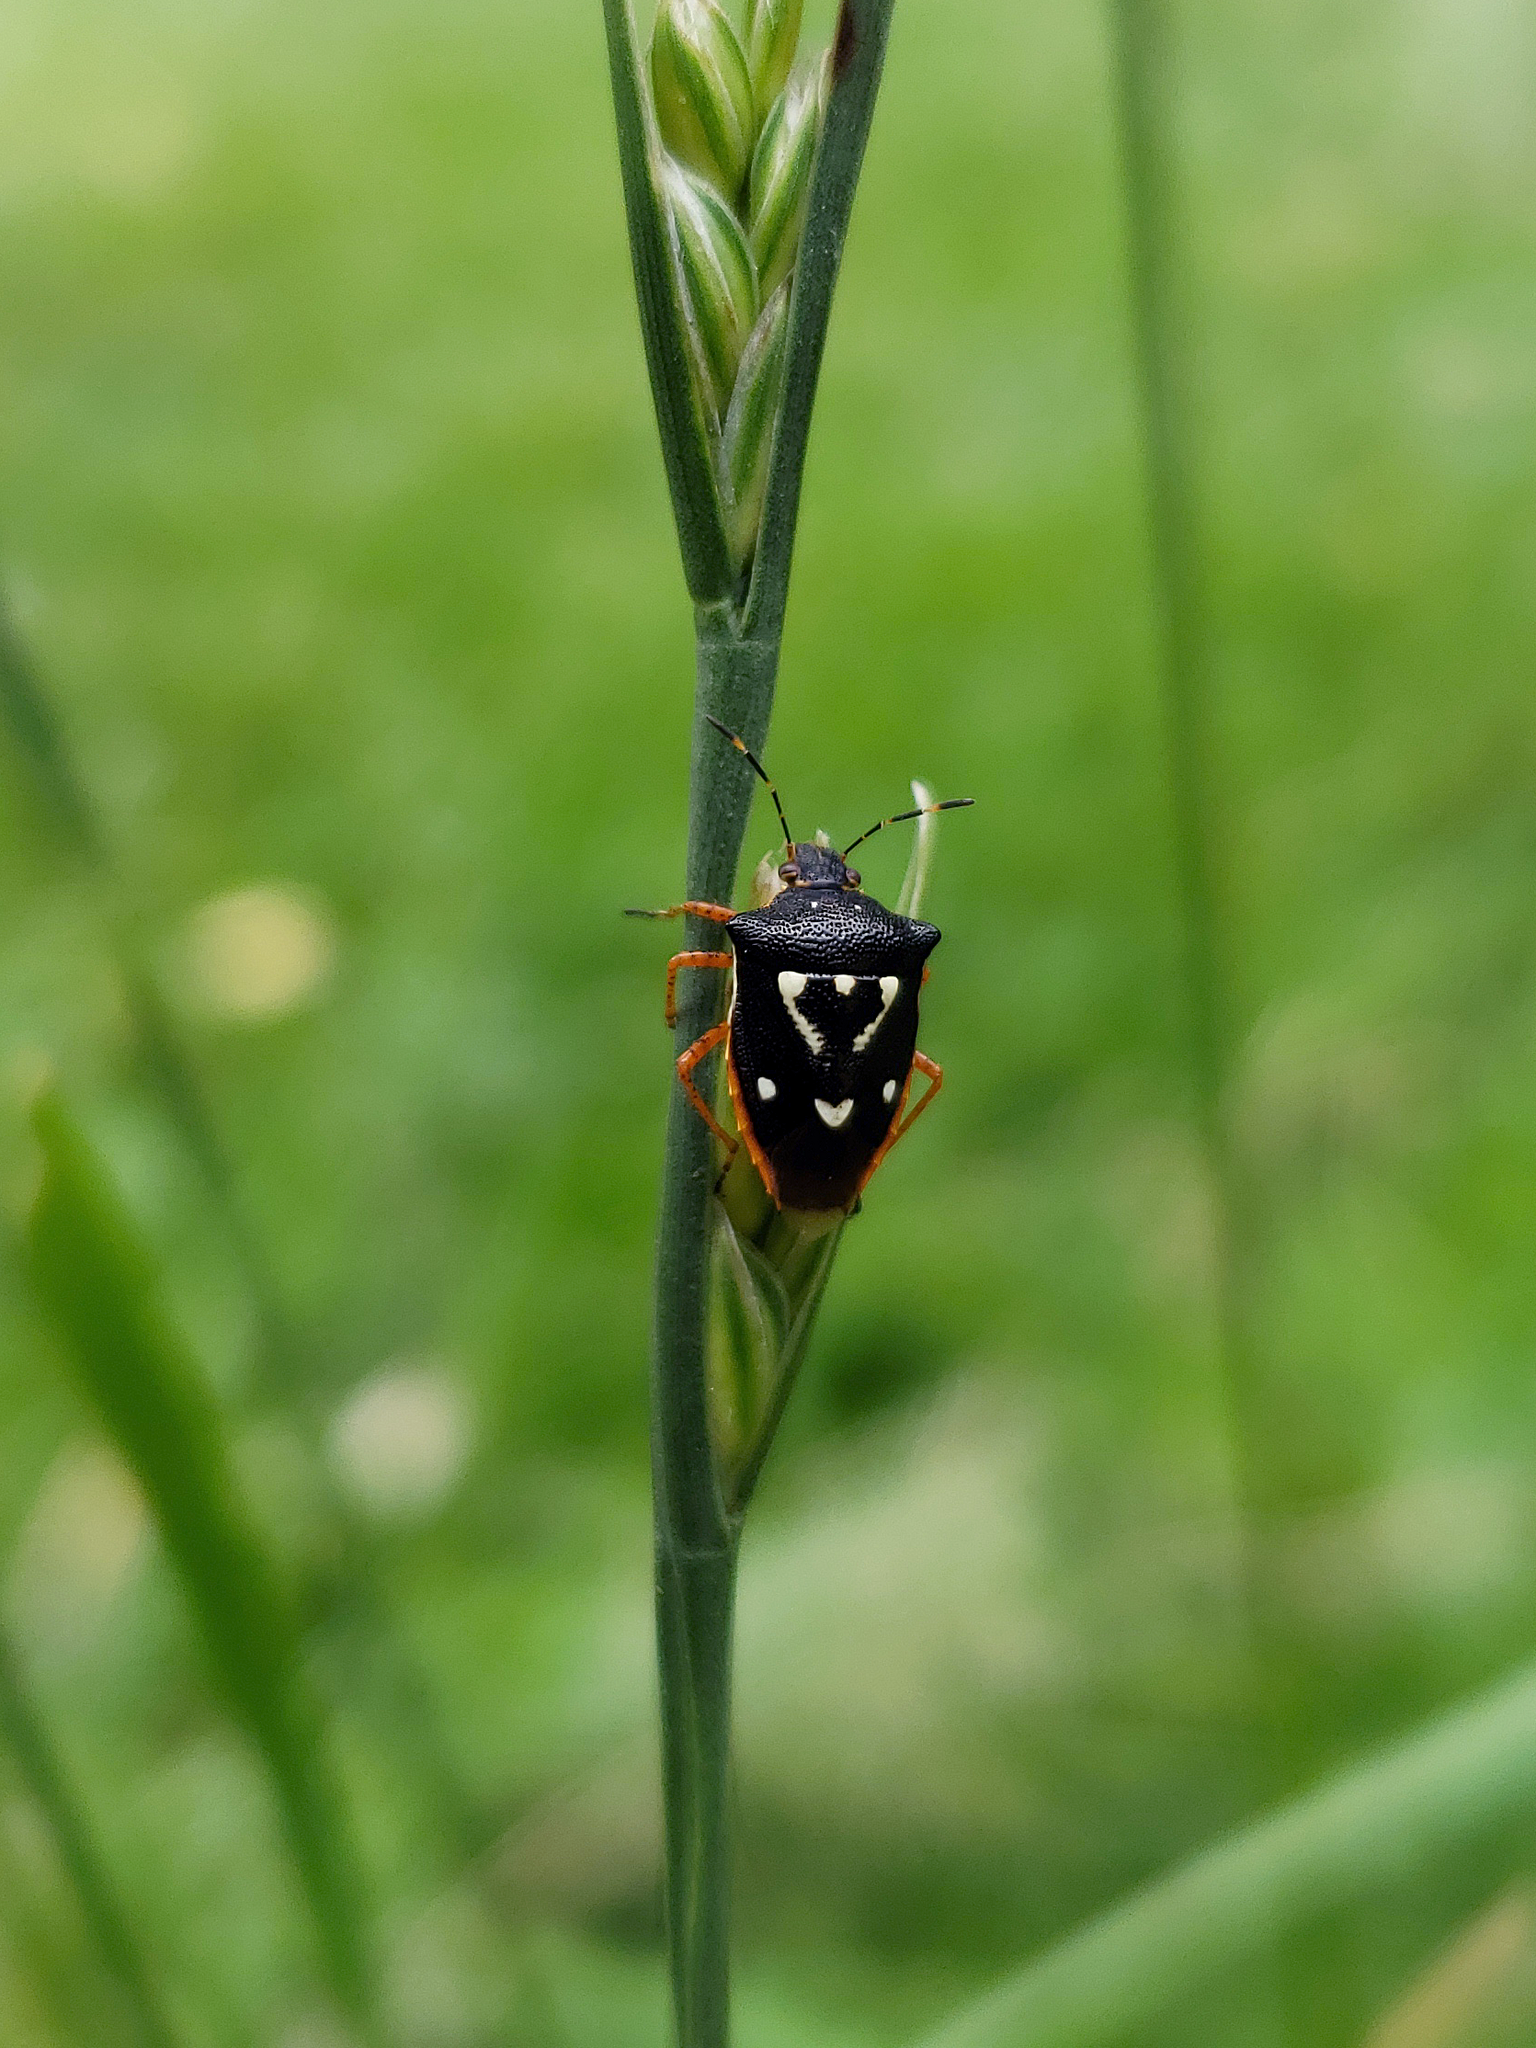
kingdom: Animalia
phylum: Arthropoda
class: Insecta
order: Hemiptera
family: Pentatomidae
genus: Mormidea
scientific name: Mormidea v-luteum
